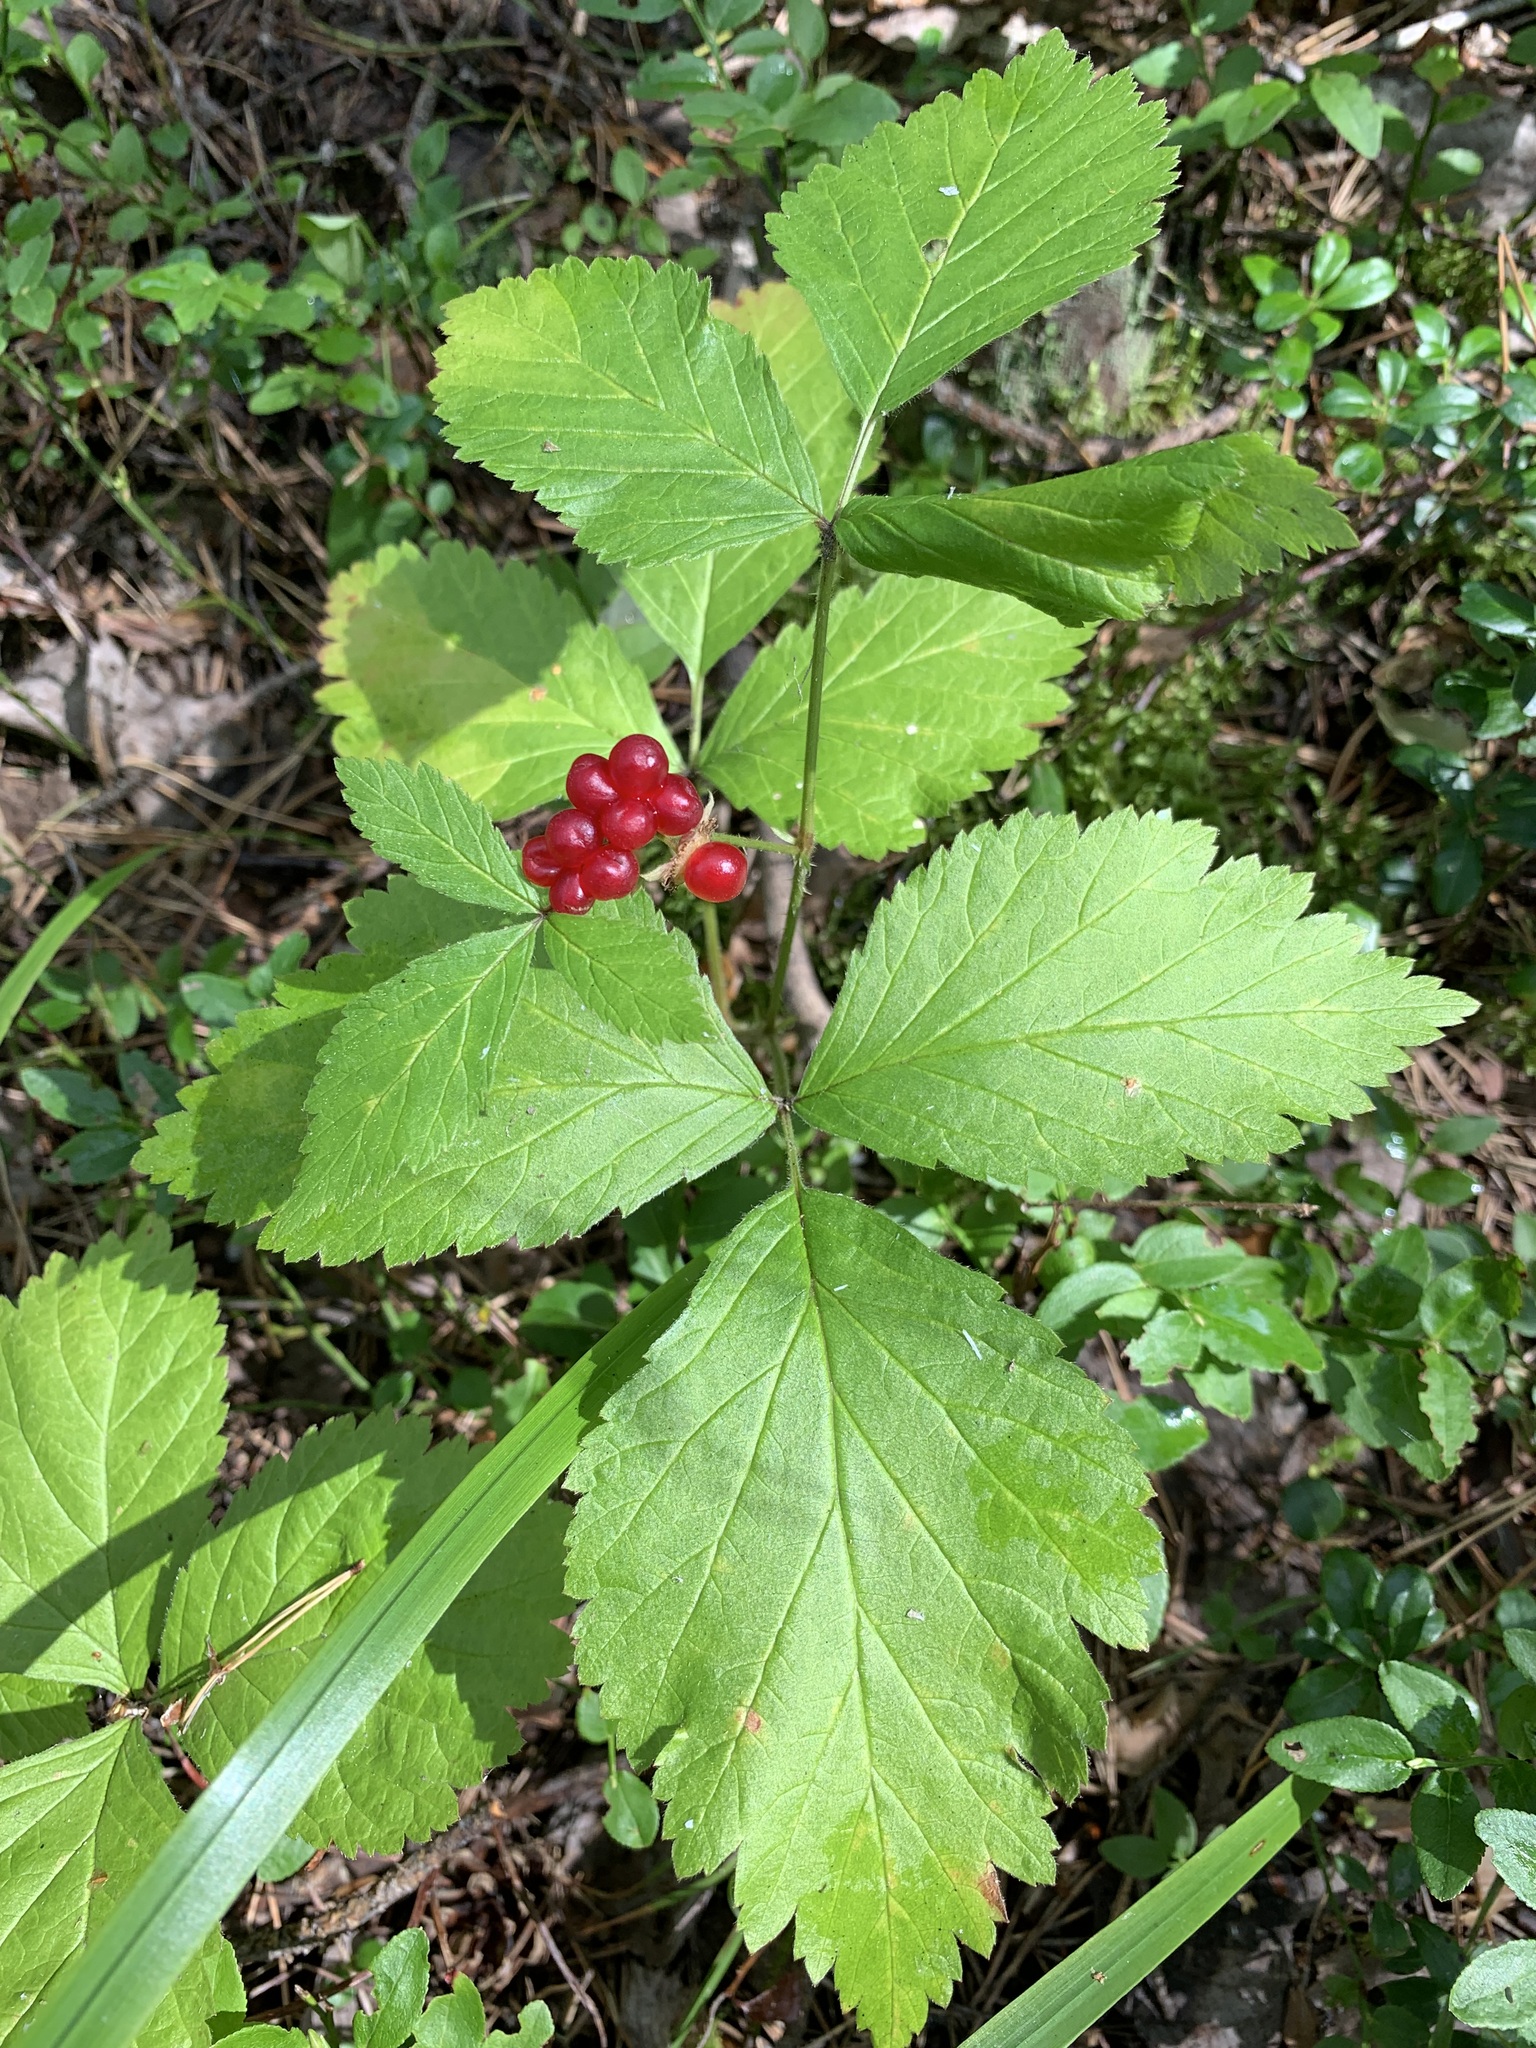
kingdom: Plantae
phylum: Tracheophyta
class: Magnoliopsida
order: Rosales
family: Rosaceae
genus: Rubus
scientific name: Rubus saxatilis
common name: Stone bramble
